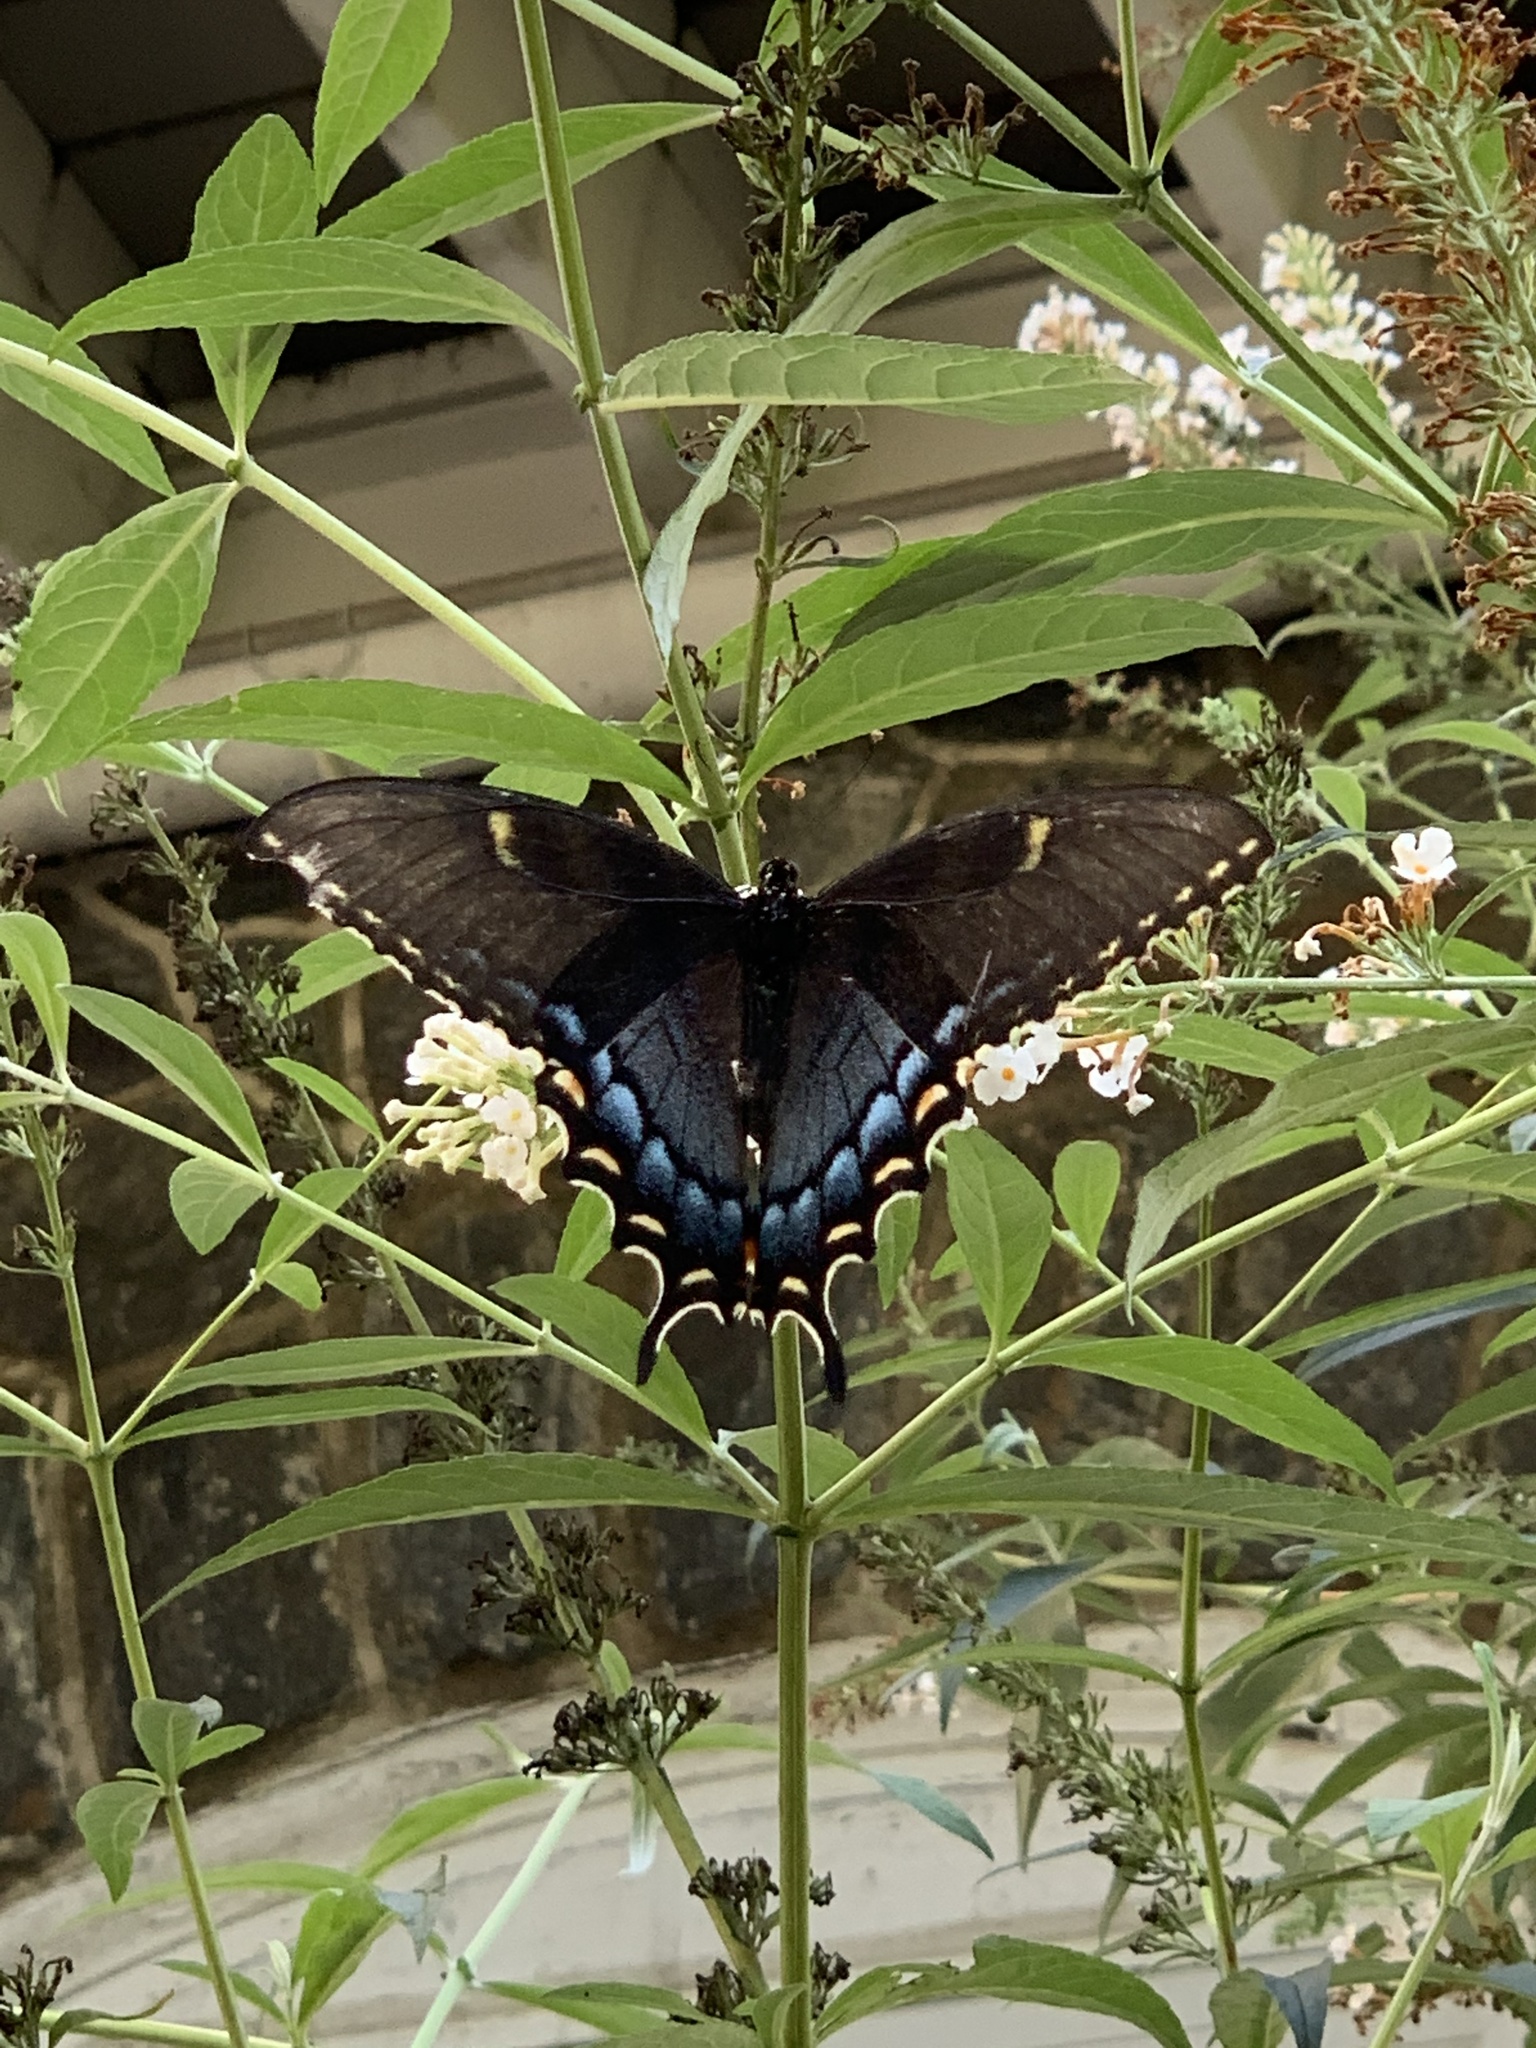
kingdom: Animalia
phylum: Arthropoda
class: Insecta
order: Lepidoptera
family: Papilionidae
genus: Papilio
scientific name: Papilio glaucus
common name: Tiger swallowtail
